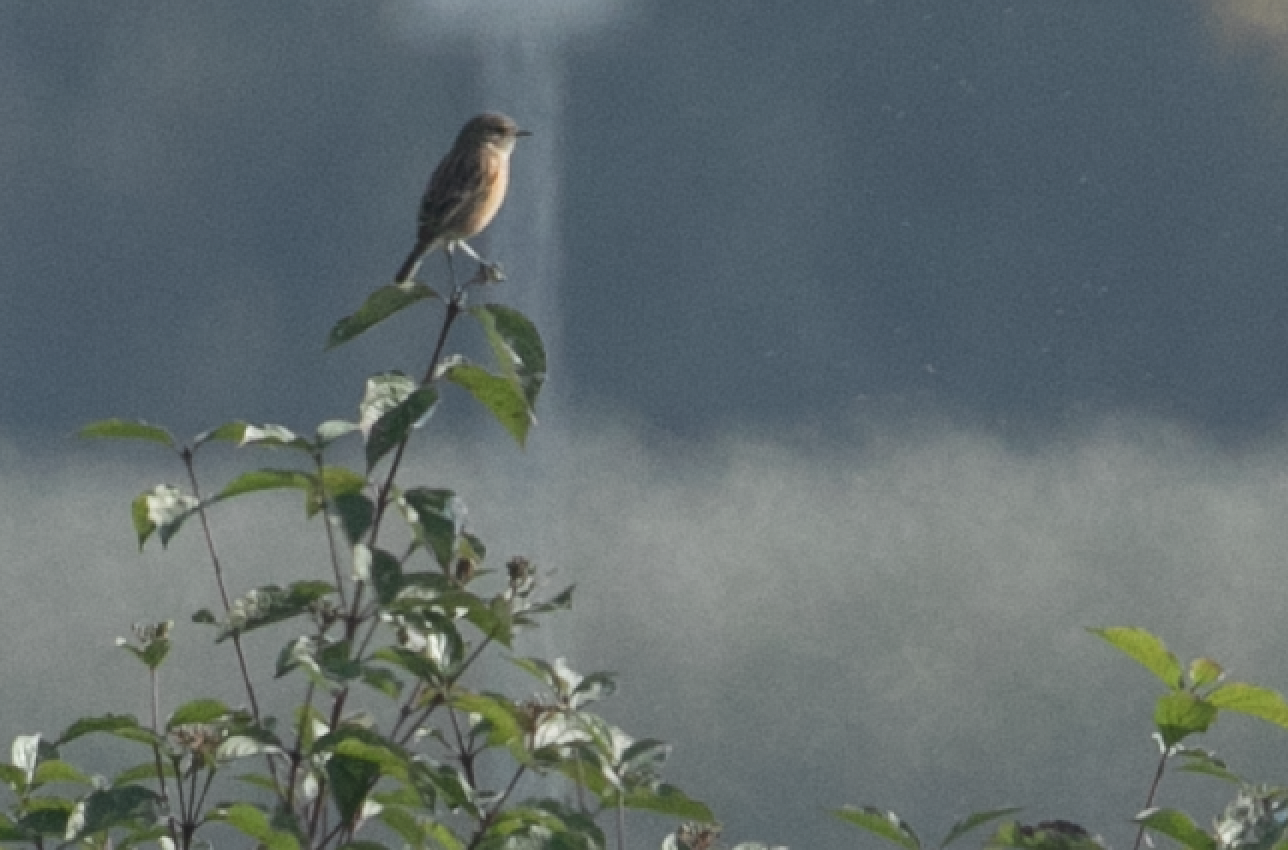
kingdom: Animalia
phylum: Chordata
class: Aves
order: Passeriformes
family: Muscicapidae
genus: Saxicola
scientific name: Saxicola rubicola
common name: European stonechat
